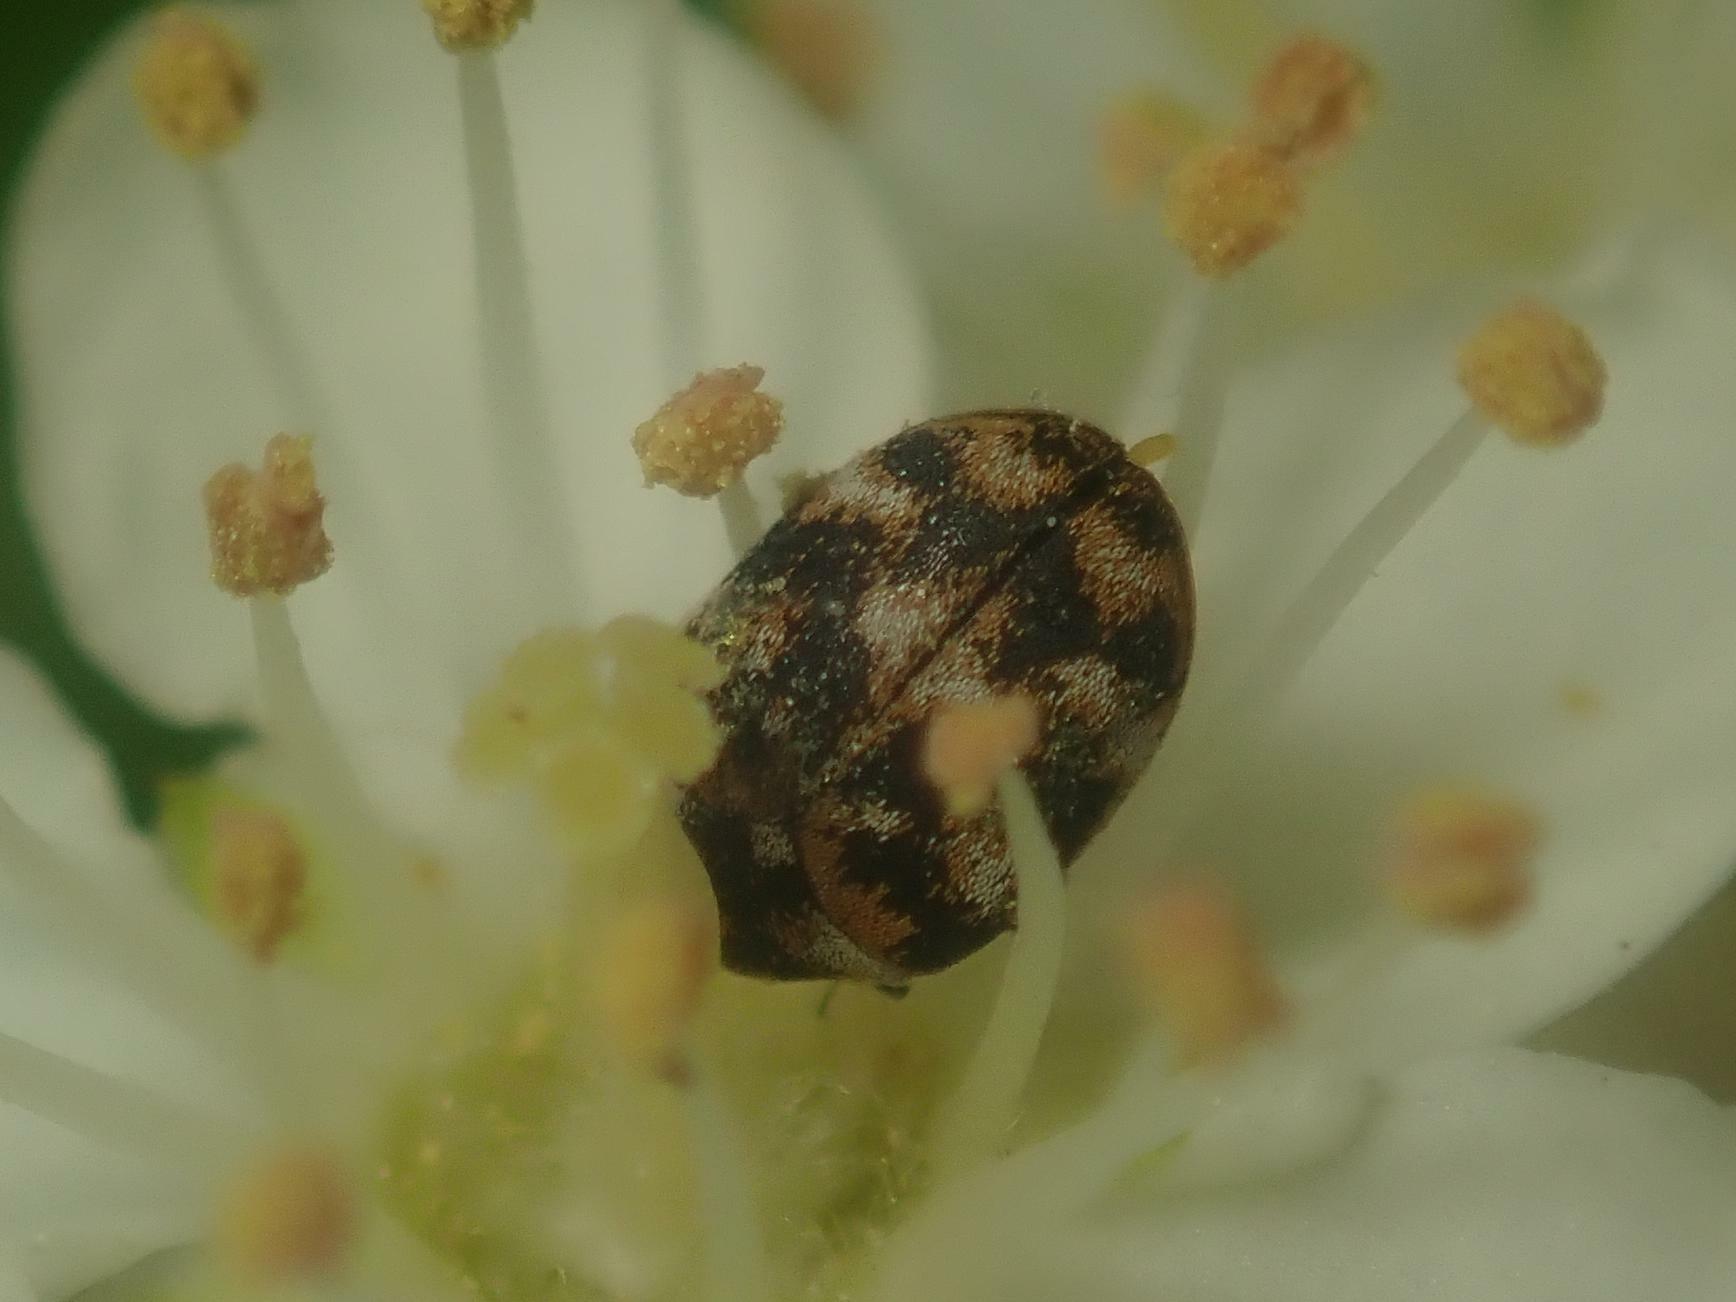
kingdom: Animalia
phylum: Arthropoda
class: Insecta
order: Coleoptera
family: Dermestidae
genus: Anthrenus
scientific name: Anthrenus verbasci
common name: Varied carpet beetle
